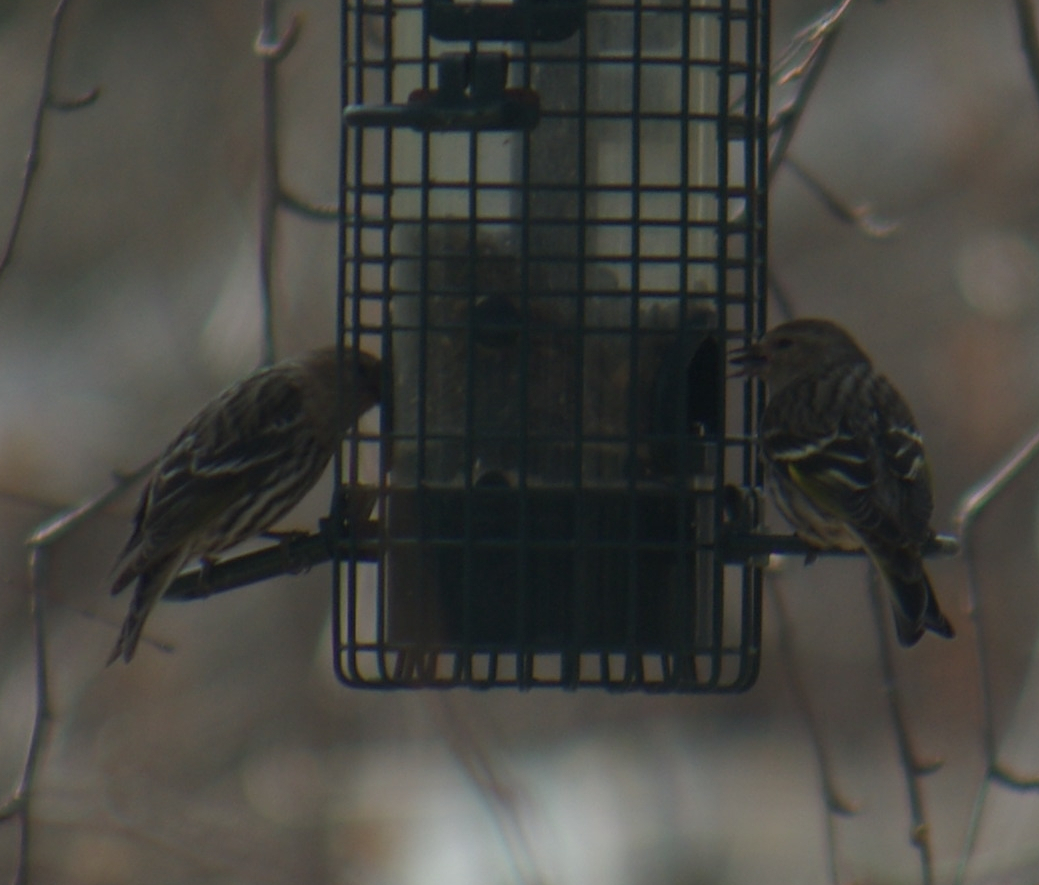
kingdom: Animalia
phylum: Chordata
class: Aves
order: Passeriformes
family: Fringillidae
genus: Spinus
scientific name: Spinus pinus
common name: Pine siskin
